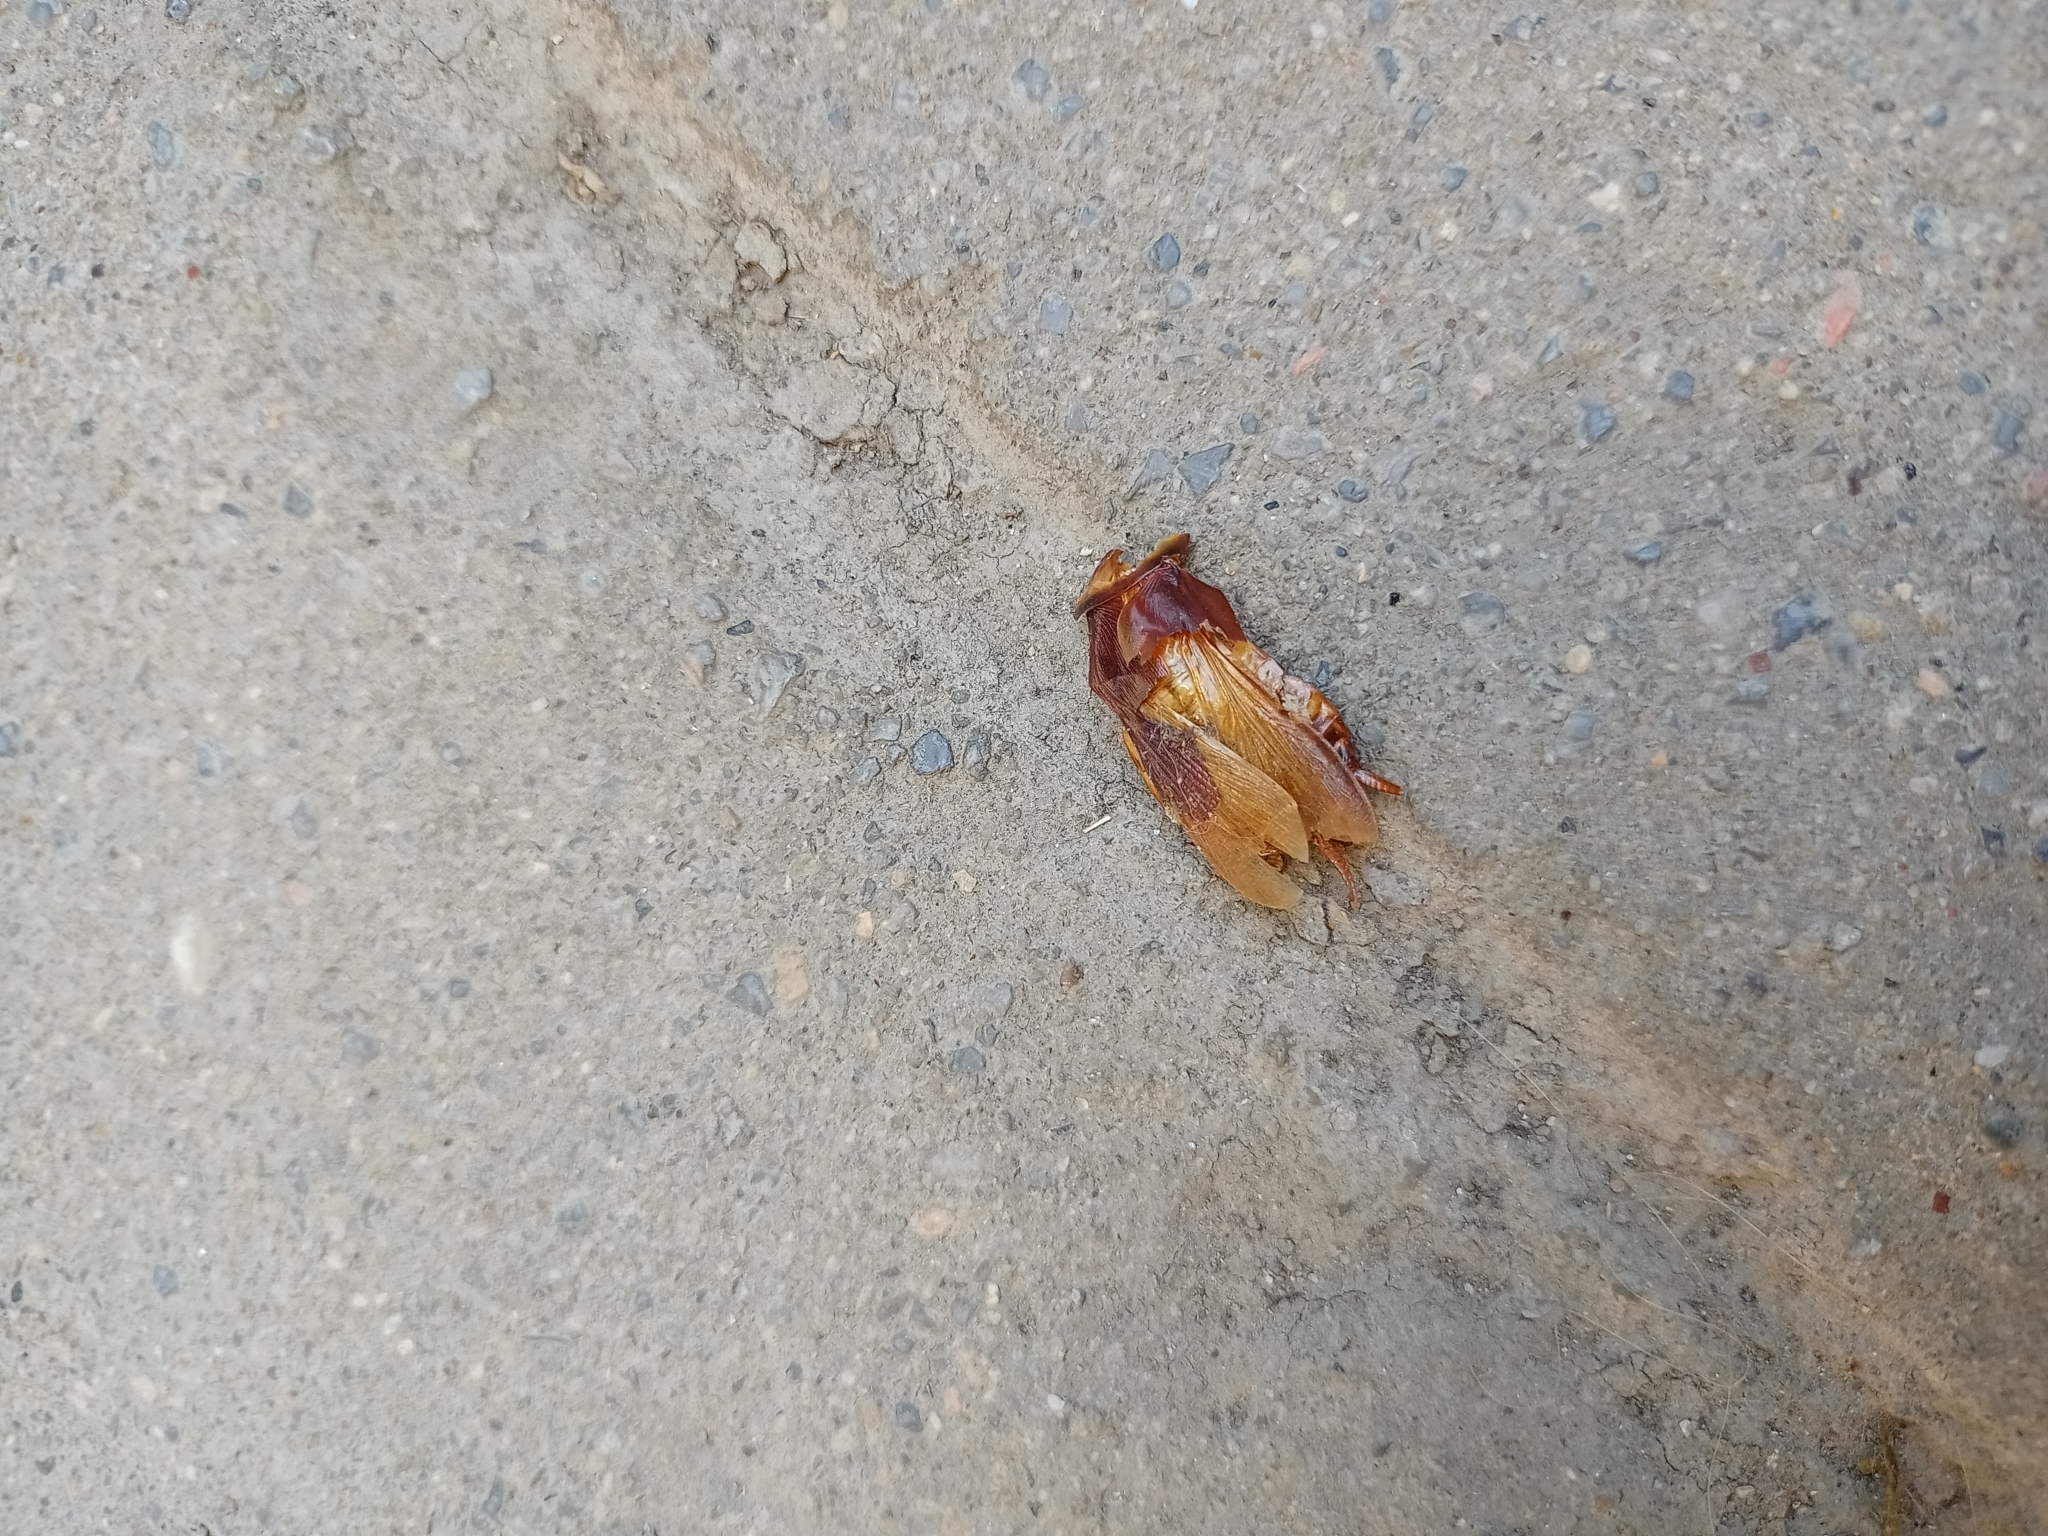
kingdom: Animalia
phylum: Arthropoda
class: Insecta
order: Blattodea
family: Blattidae
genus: Periplaneta
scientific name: Periplaneta americana
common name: American cockroach
